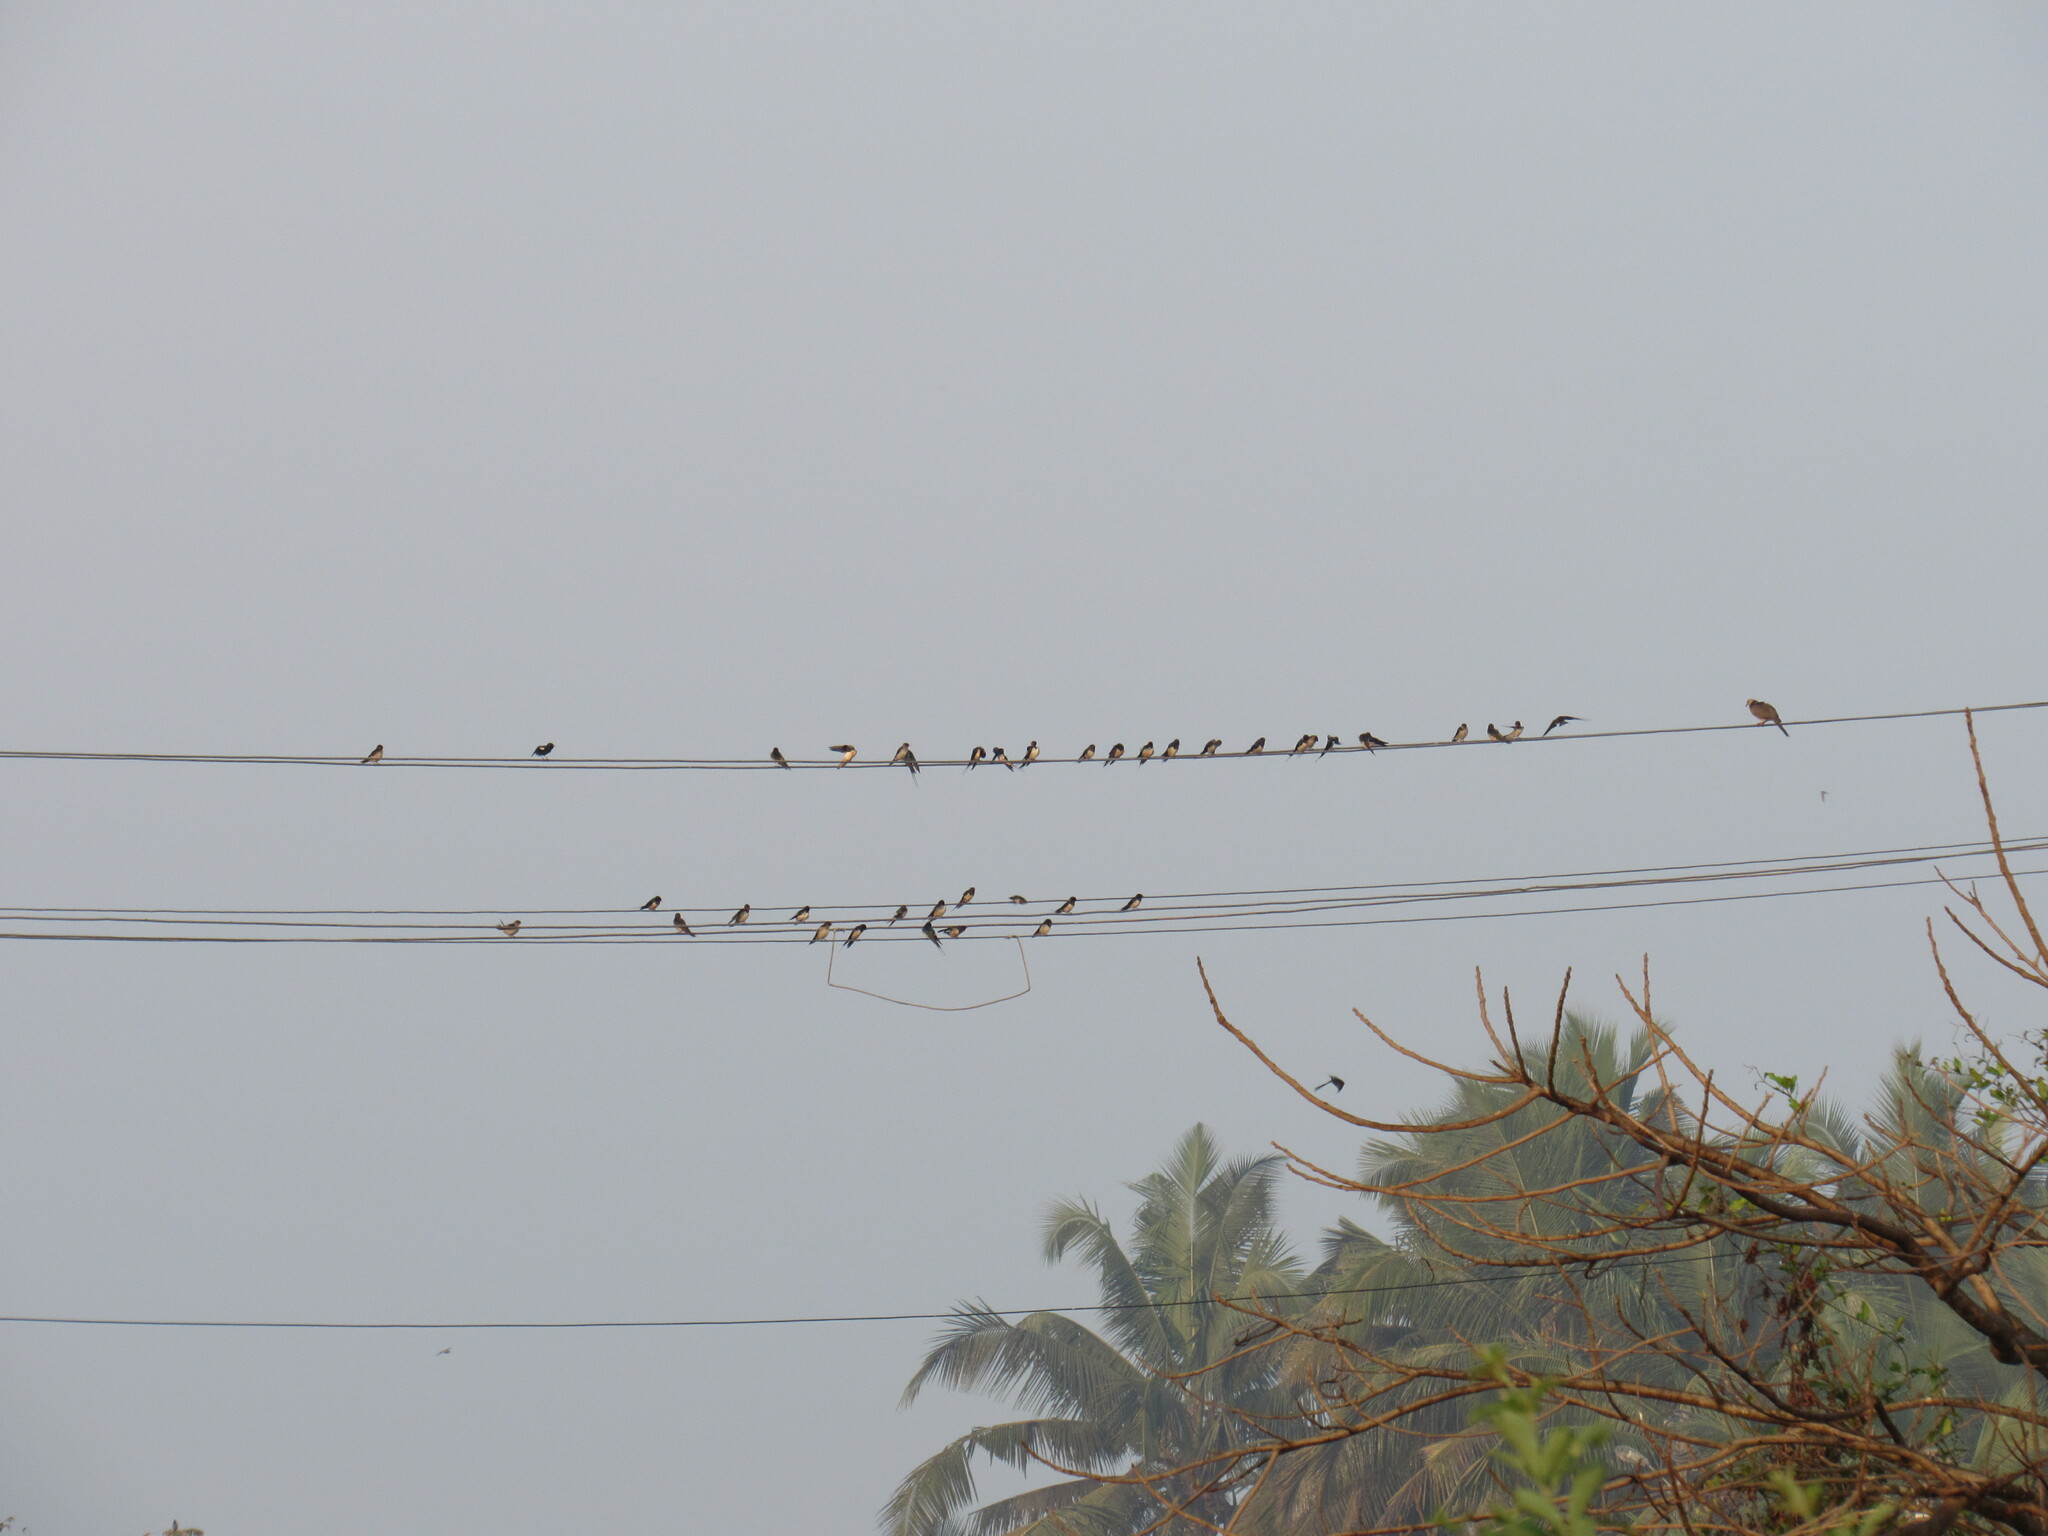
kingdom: Animalia
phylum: Chordata
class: Aves
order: Passeriformes
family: Hirundinidae
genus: Hirundo
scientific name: Hirundo smithii
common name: Wire-tailed swallow
